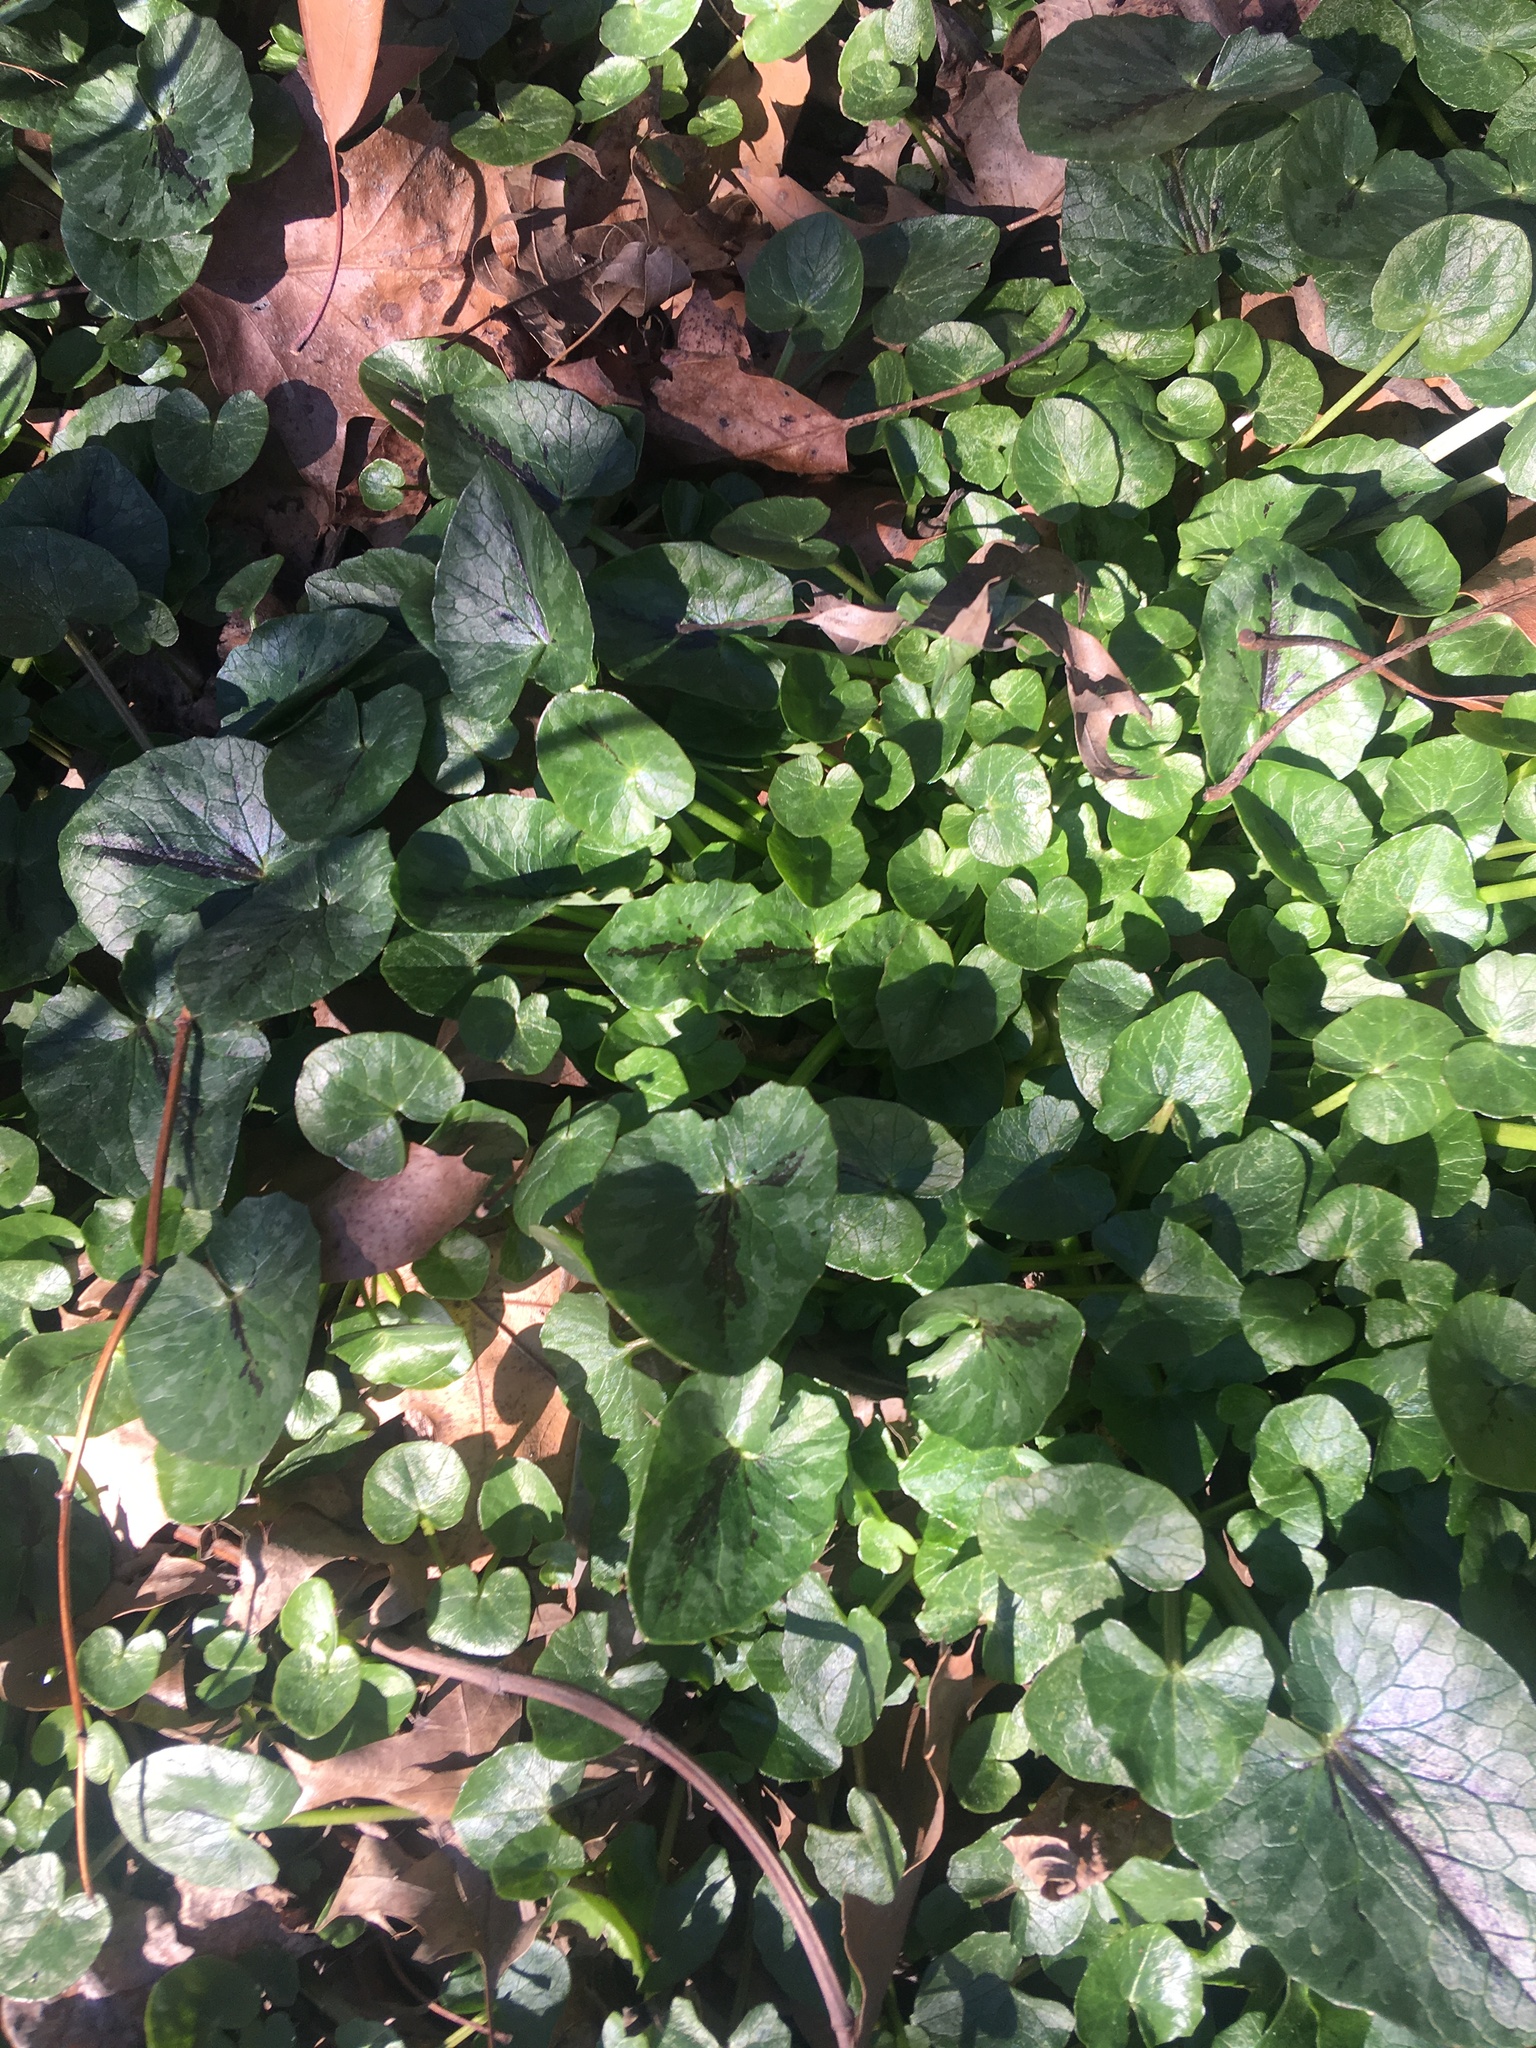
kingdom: Plantae
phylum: Tracheophyta
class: Magnoliopsida
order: Ranunculales
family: Ranunculaceae
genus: Ficaria
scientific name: Ficaria verna
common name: Lesser celandine
